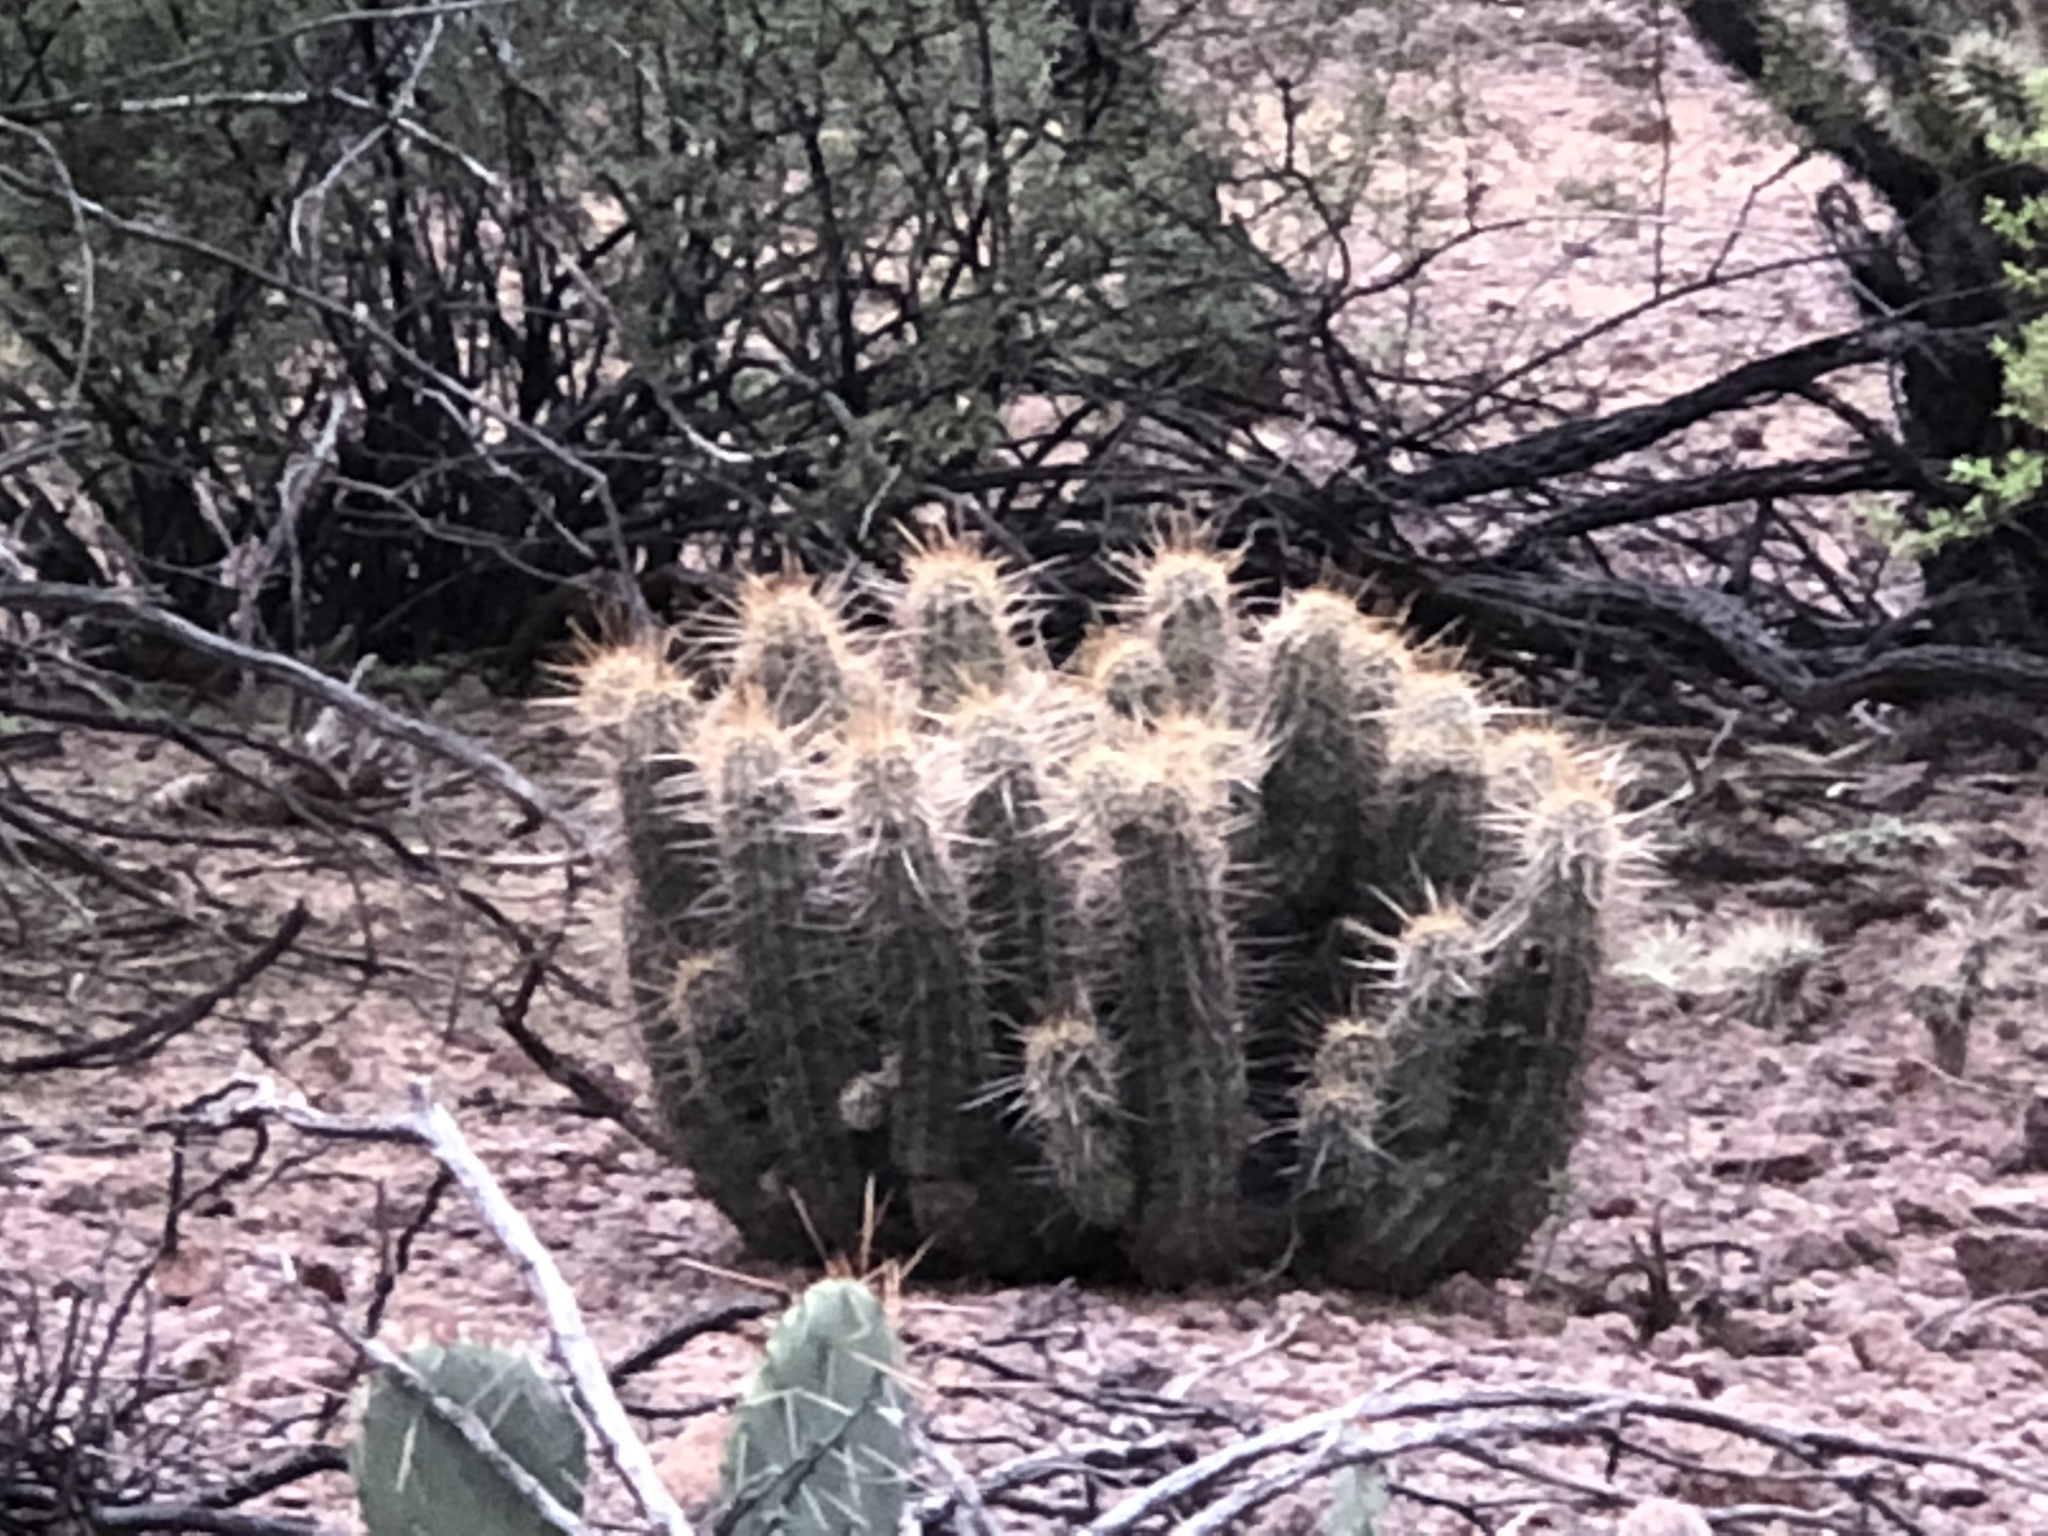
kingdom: Plantae
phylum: Tracheophyta
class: Magnoliopsida
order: Caryophyllales
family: Cactaceae
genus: Echinocereus
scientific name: Echinocereus fasciculatus
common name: Bundle hedgehog
